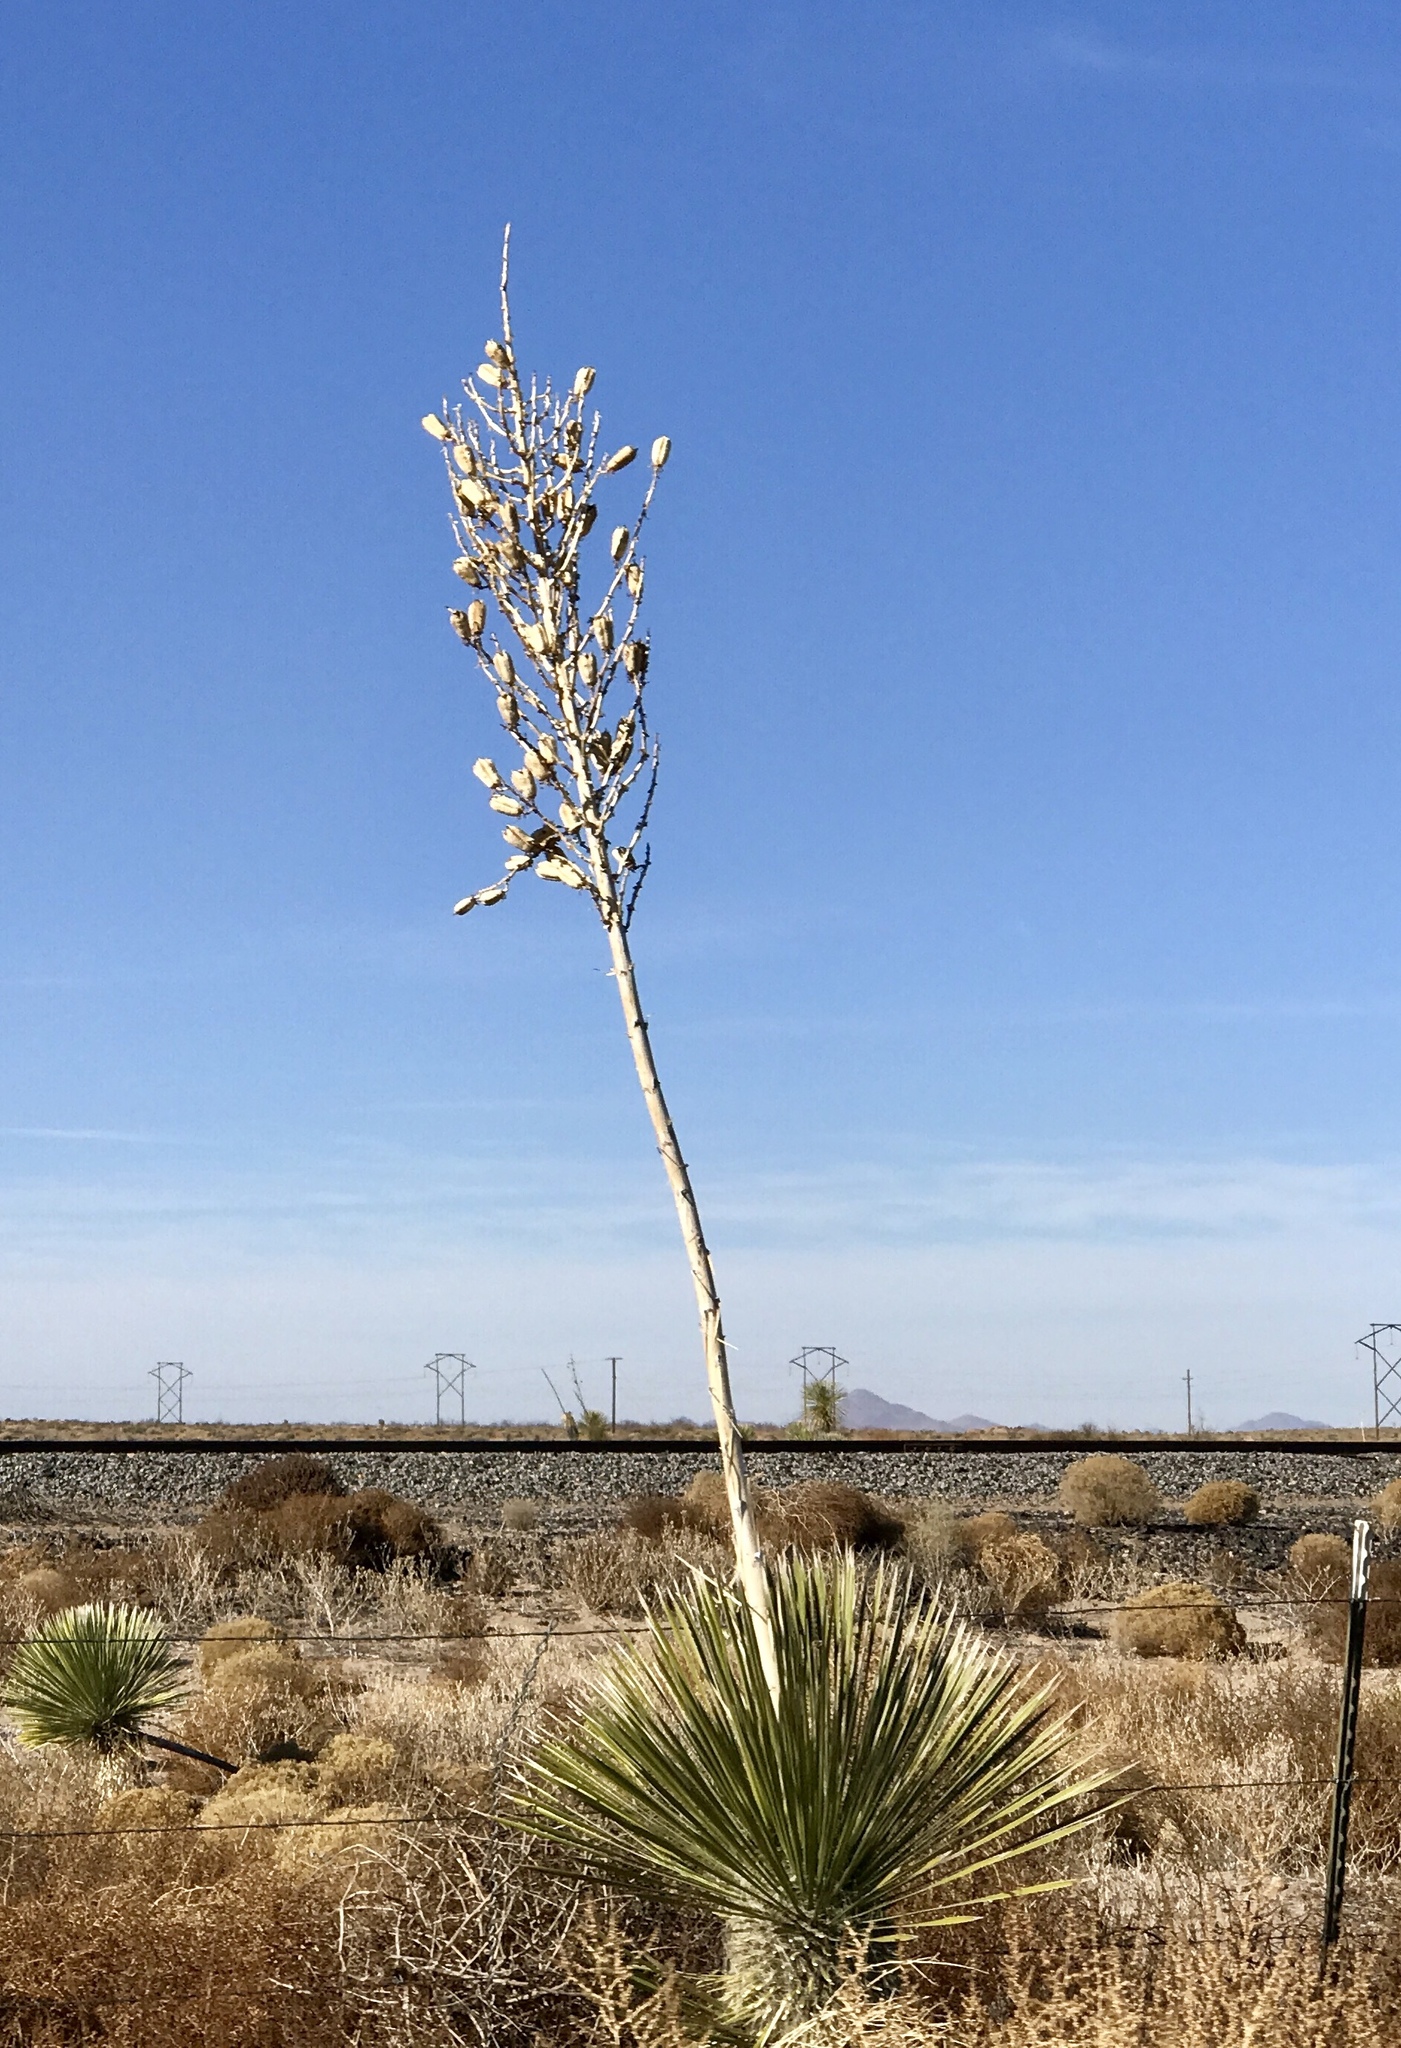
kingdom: Plantae
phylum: Tracheophyta
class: Liliopsida
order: Asparagales
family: Asparagaceae
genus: Yucca
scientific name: Yucca elata
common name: Palmella
